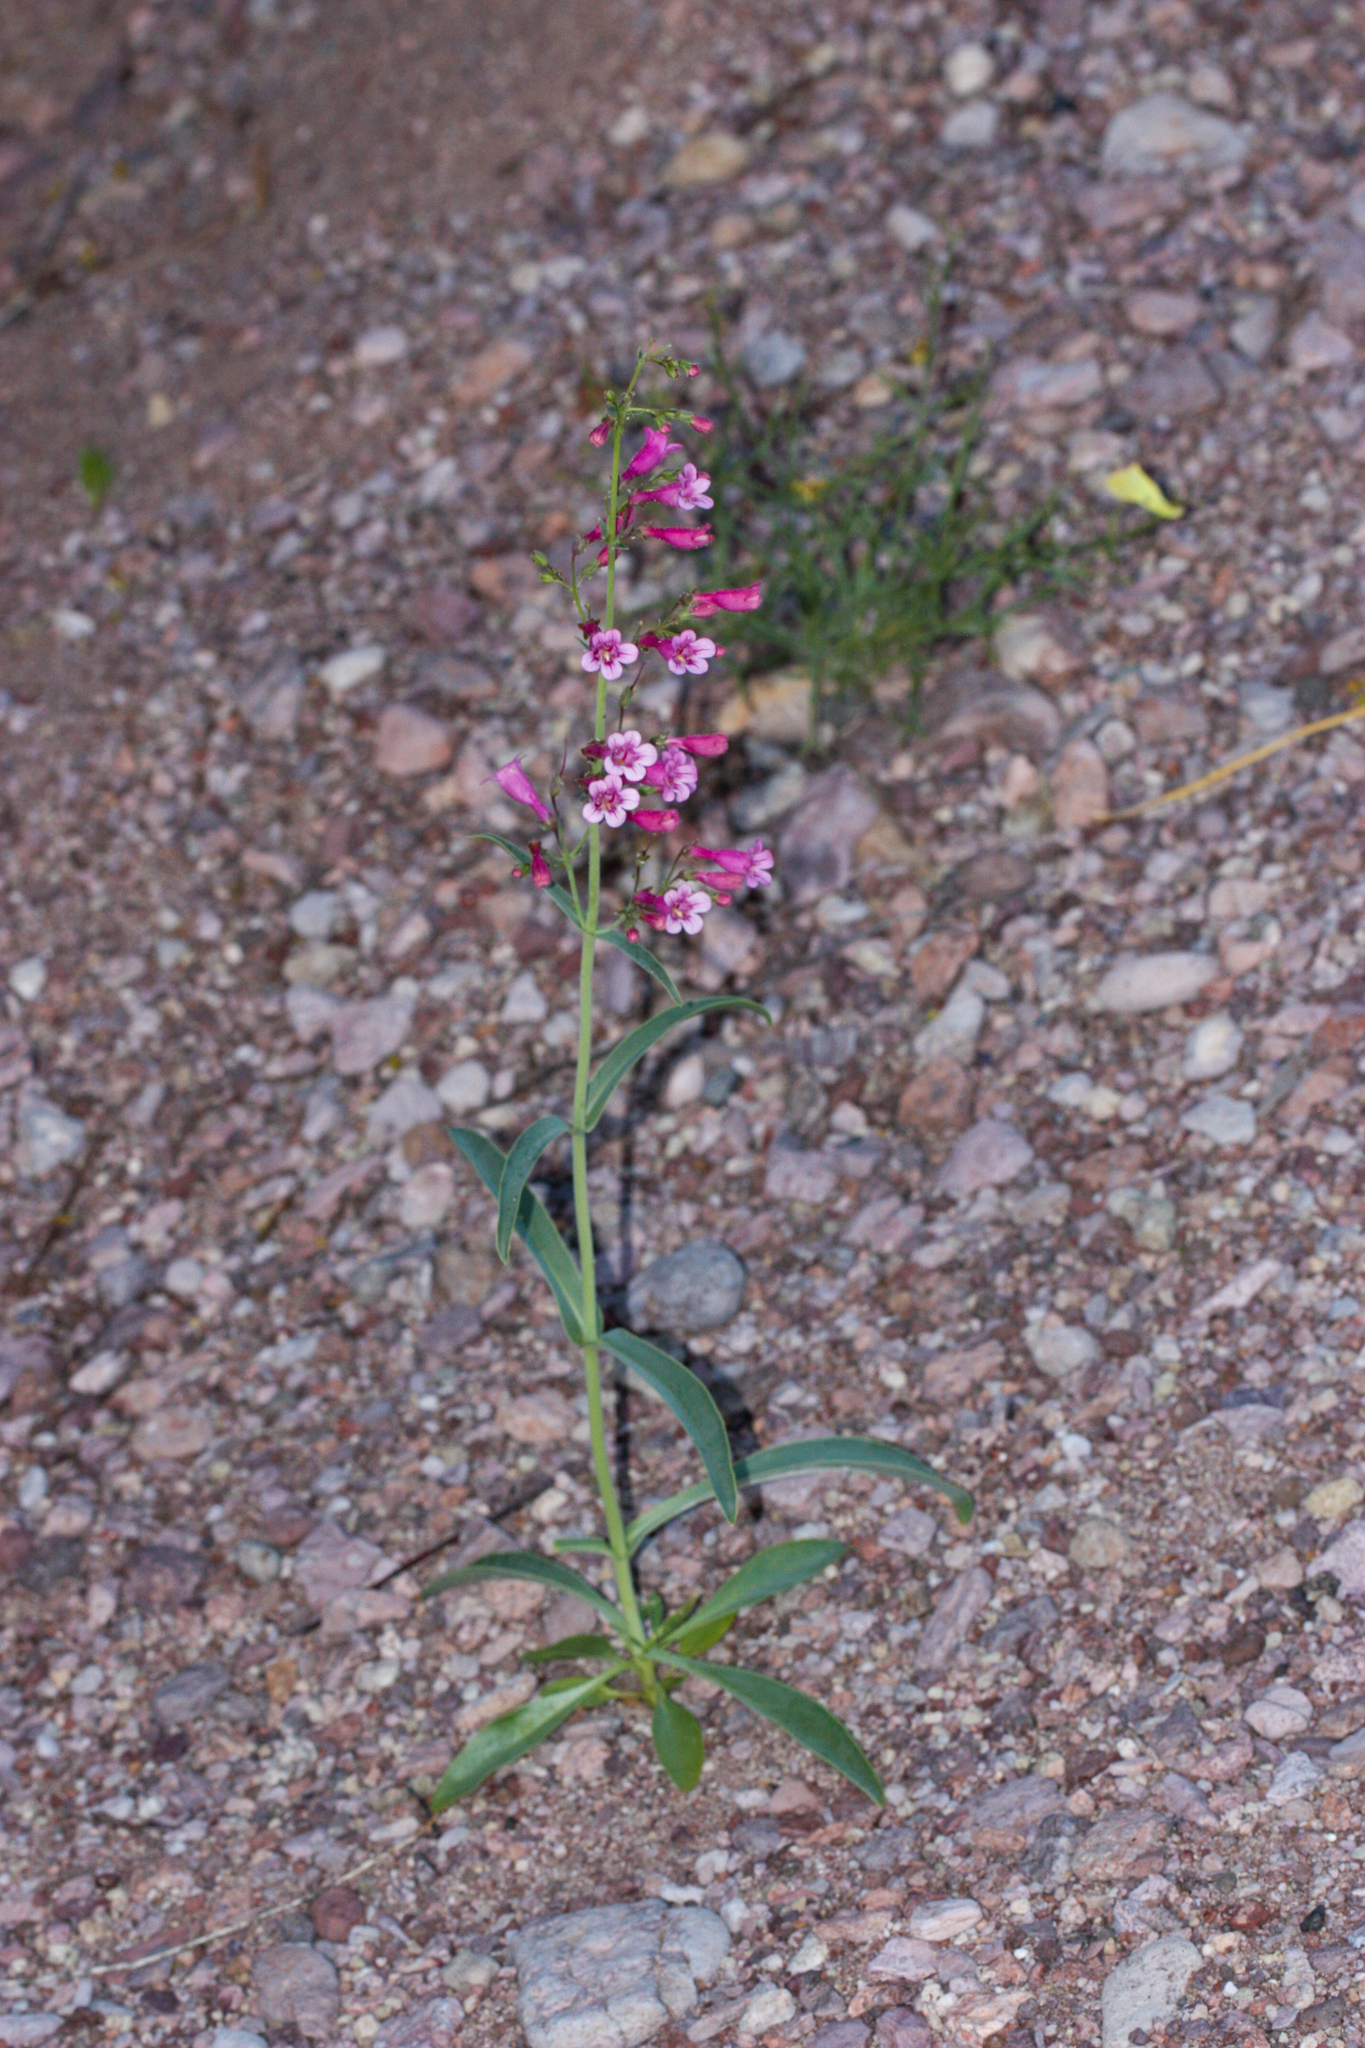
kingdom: Plantae
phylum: Tracheophyta
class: Magnoliopsida
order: Lamiales
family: Plantaginaceae
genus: Penstemon
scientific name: Penstemon parryi
